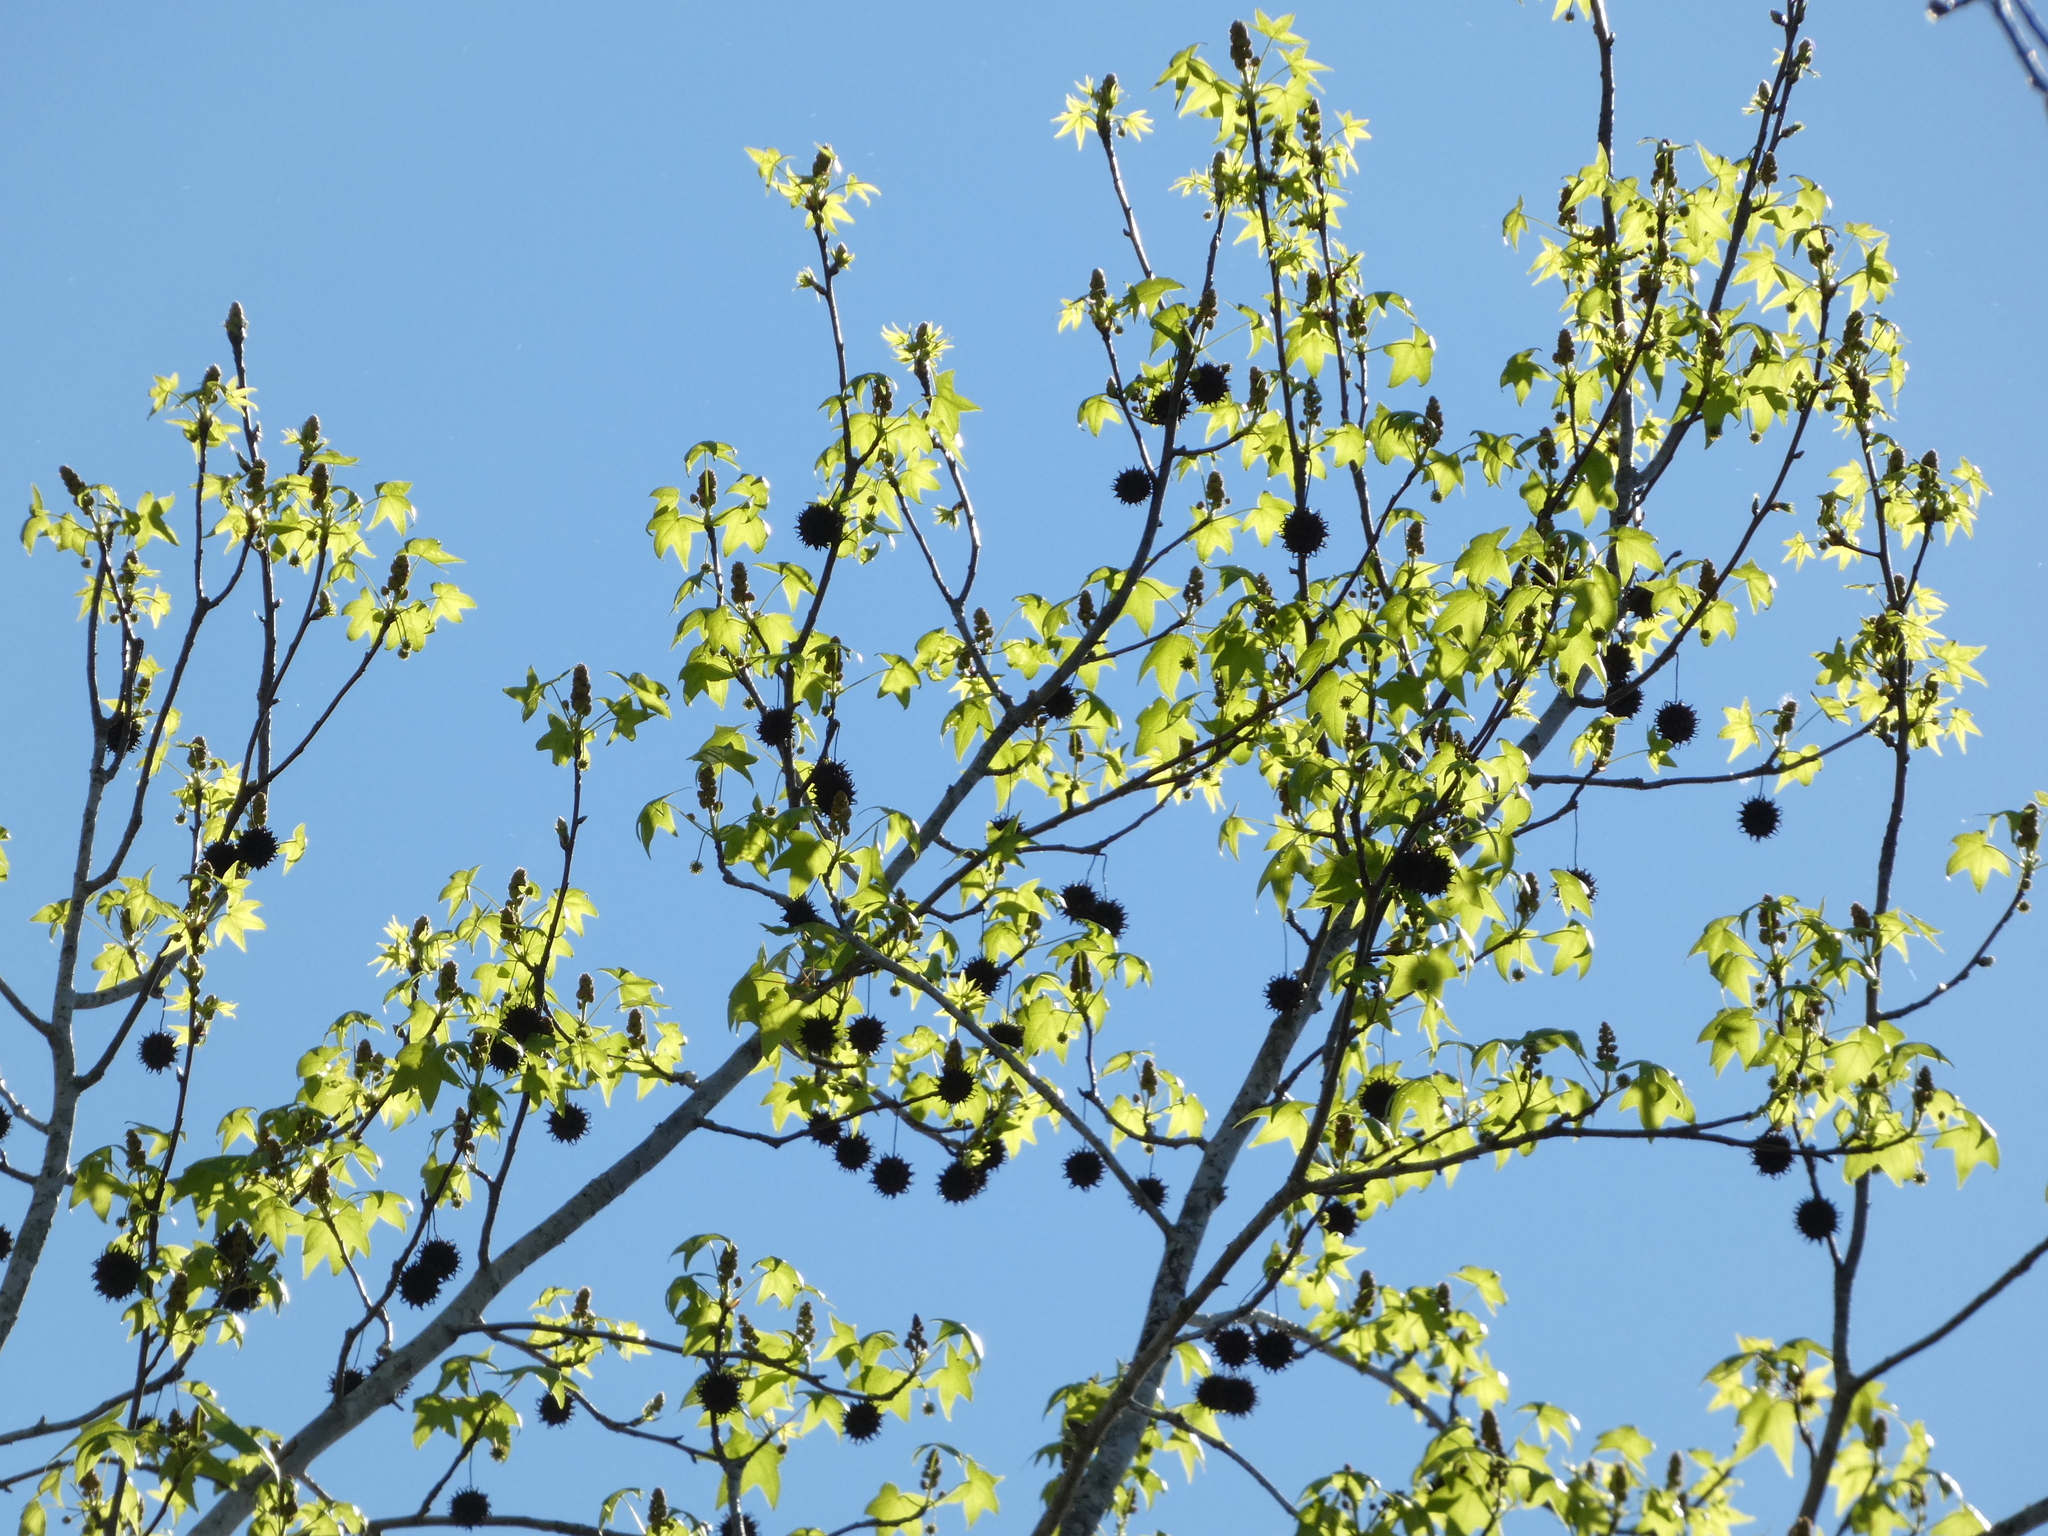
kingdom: Plantae
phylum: Tracheophyta
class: Magnoliopsida
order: Saxifragales
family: Altingiaceae
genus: Liquidambar
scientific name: Liquidambar styraciflua
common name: Sweet gum
